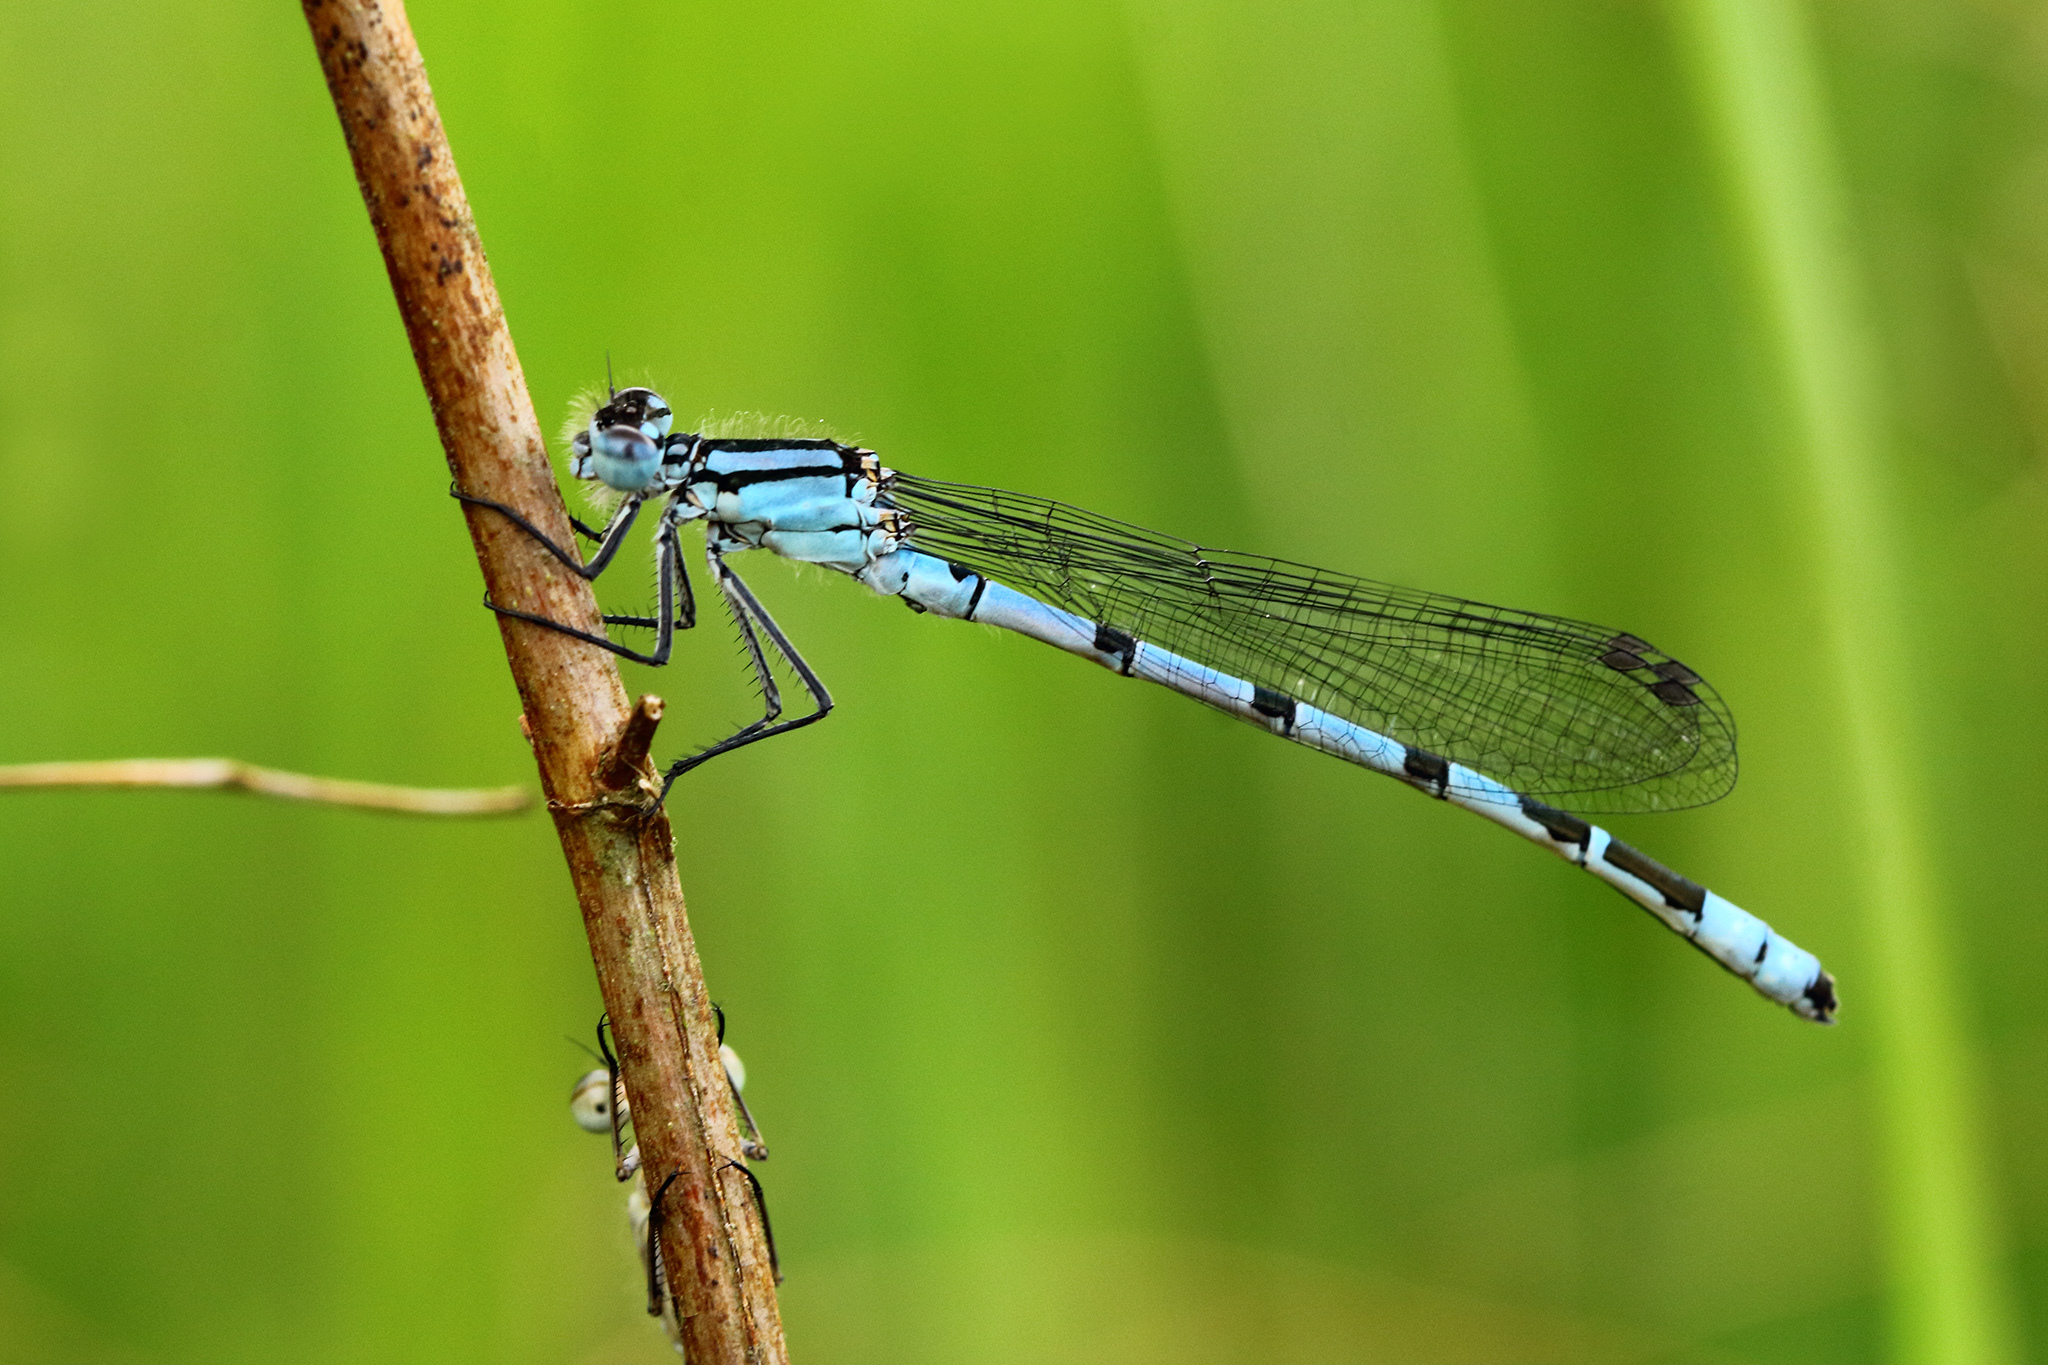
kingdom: Animalia
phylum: Arthropoda
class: Insecta
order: Odonata
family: Coenagrionidae
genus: Enallagma
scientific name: Enallagma cyathigerum
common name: Common blue damselfly
